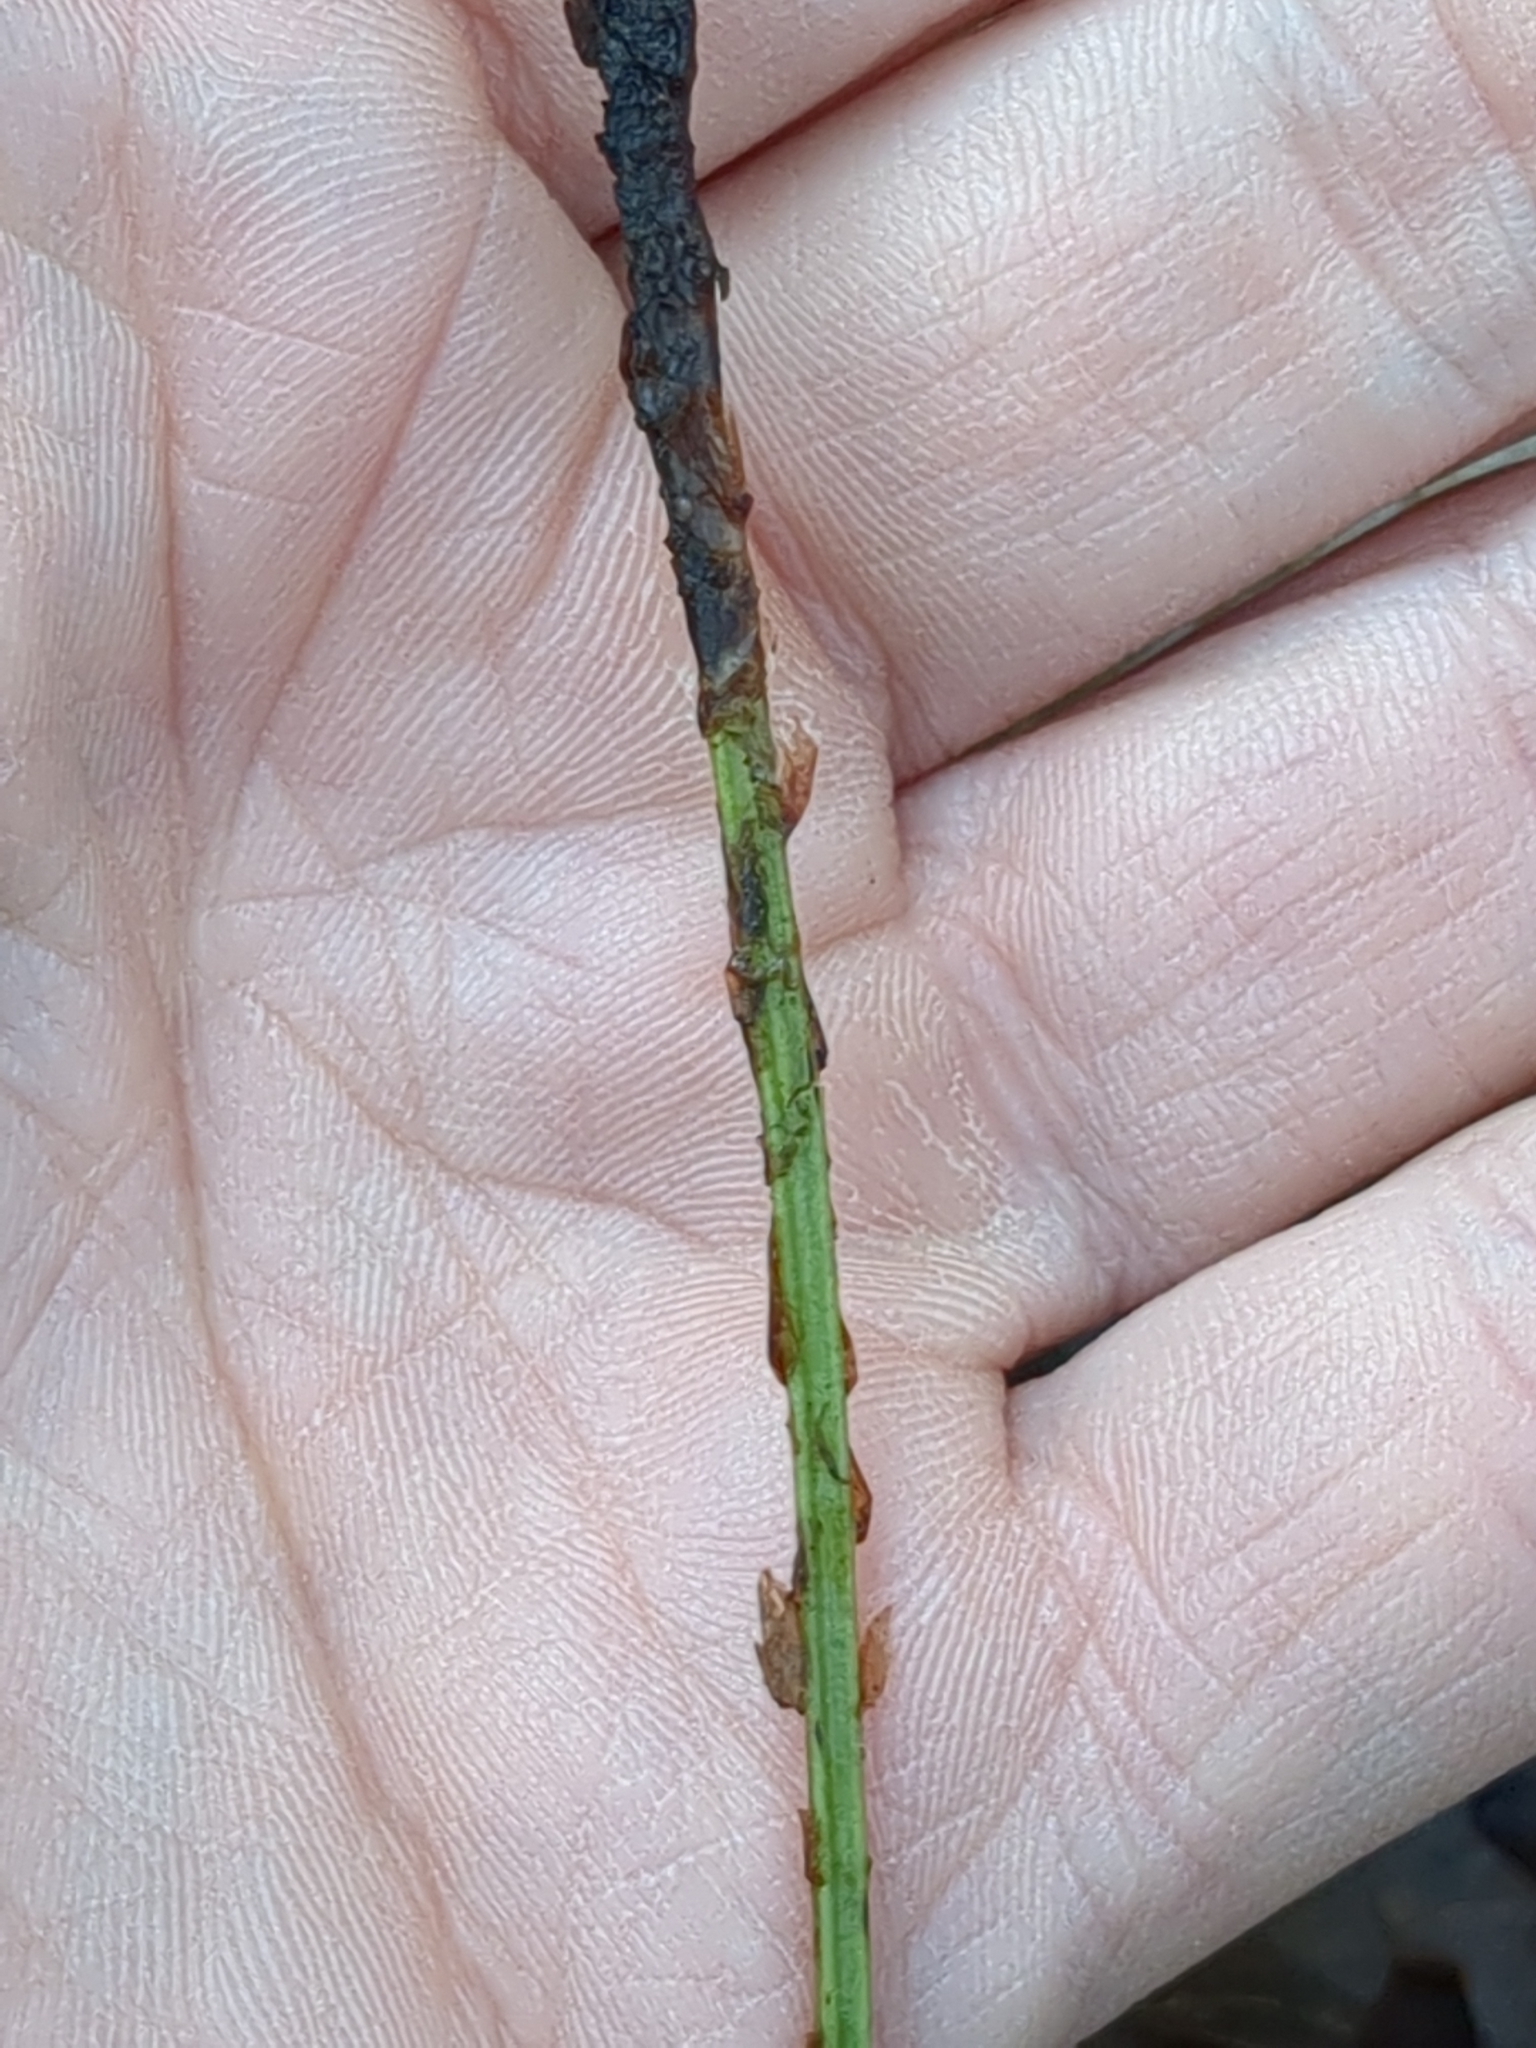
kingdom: Plantae
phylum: Tracheophyta
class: Polypodiopsida
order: Polypodiales
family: Dryopteridaceae
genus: Dryopteris
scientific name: Dryopteris carthusiana
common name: Narrow buckler-fern
